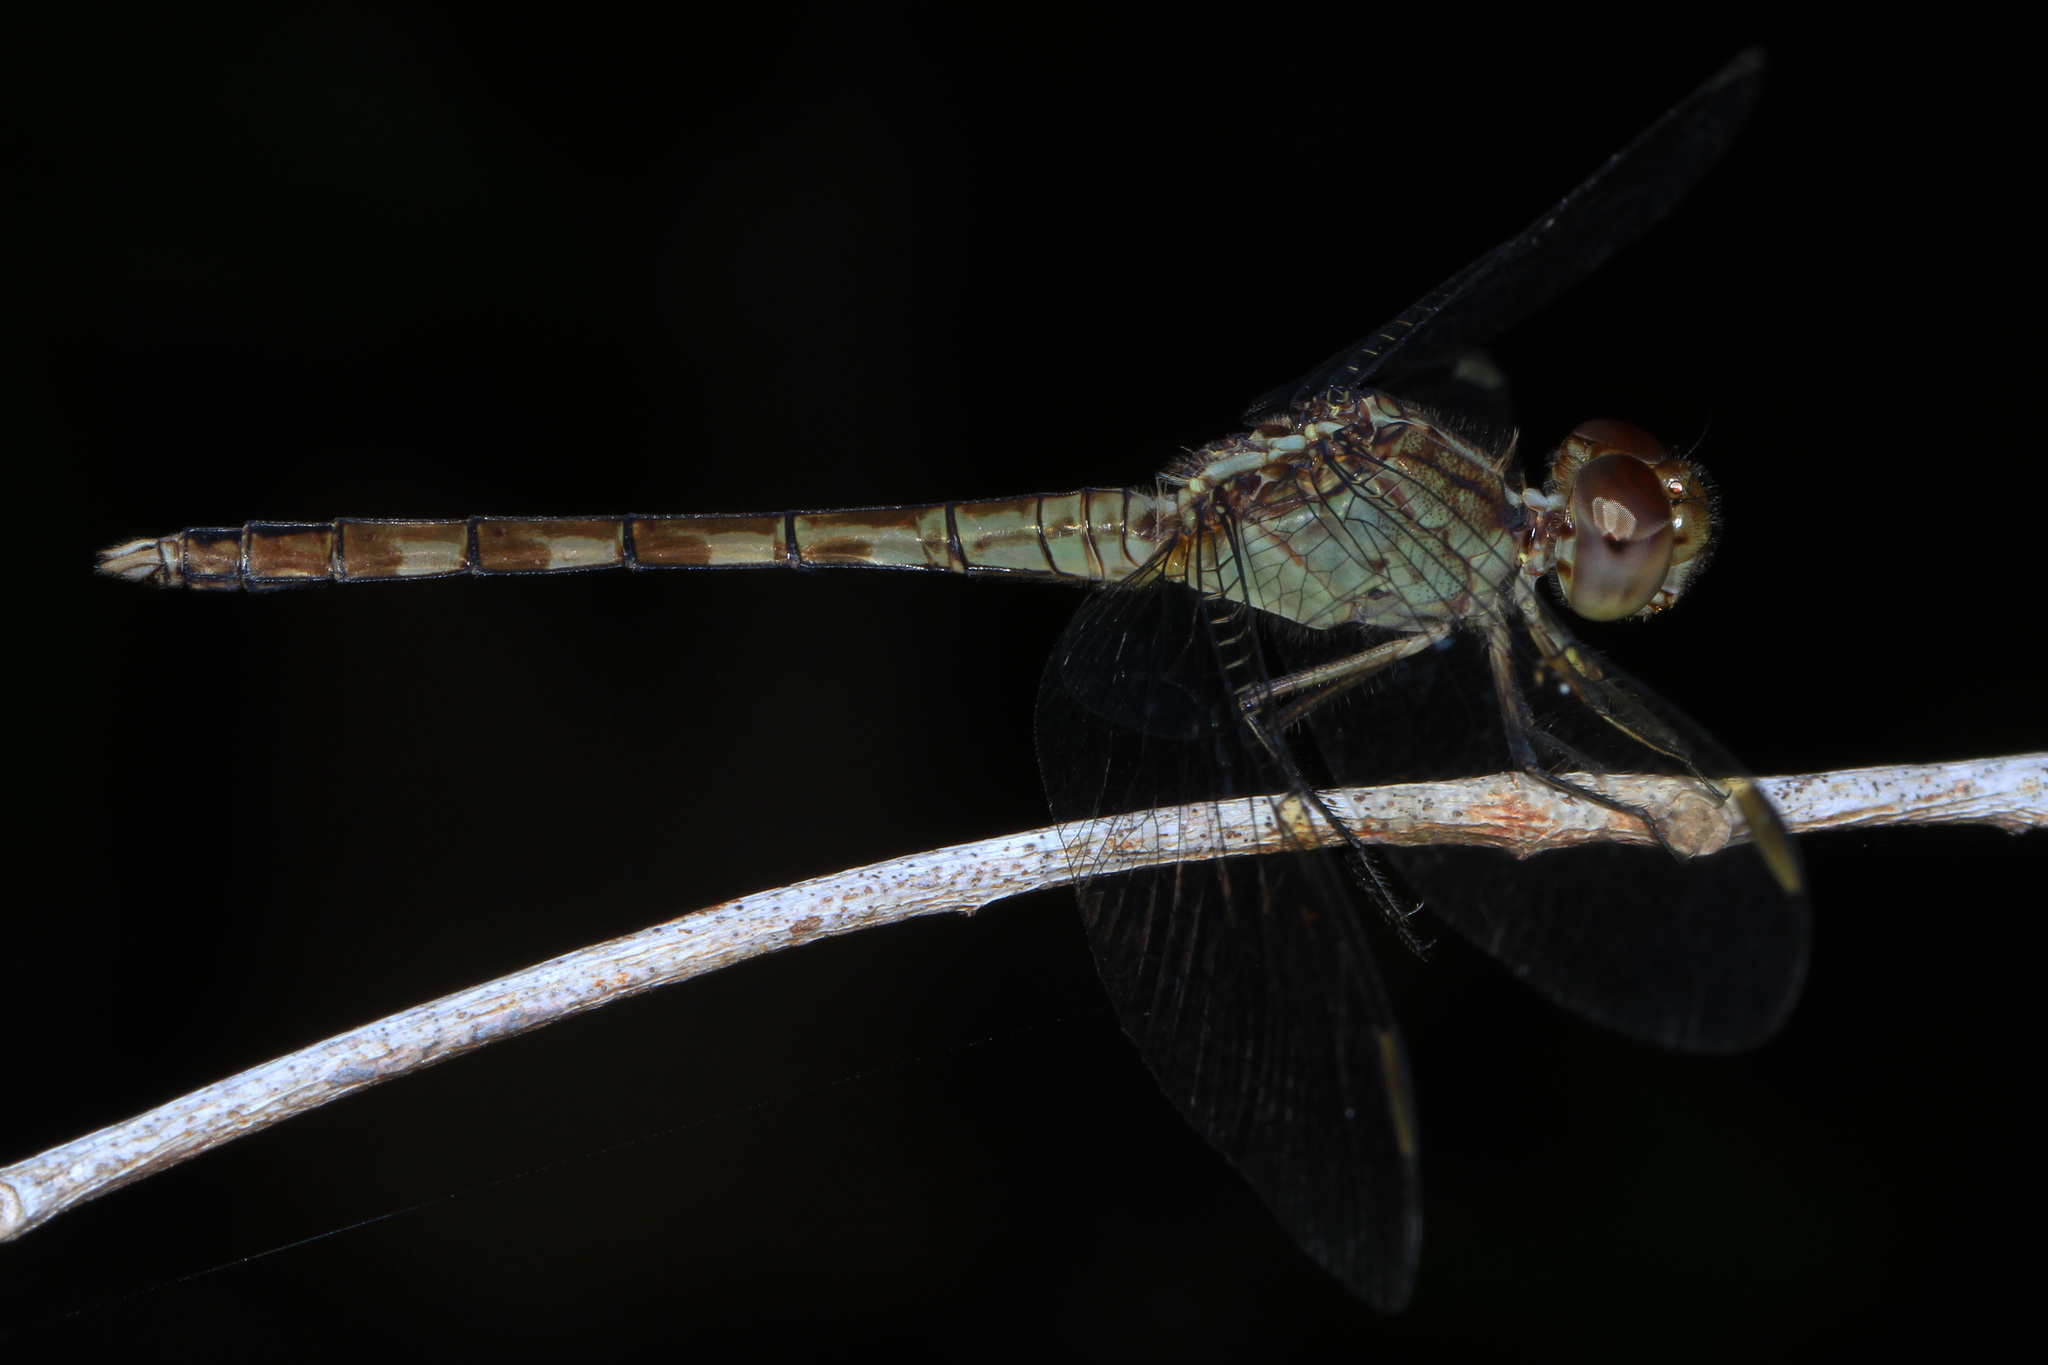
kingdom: Animalia
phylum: Arthropoda
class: Insecta
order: Odonata
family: Libellulidae
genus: Erythrodiplax
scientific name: Erythrodiplax umbrata
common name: Band-winged dragonlet
